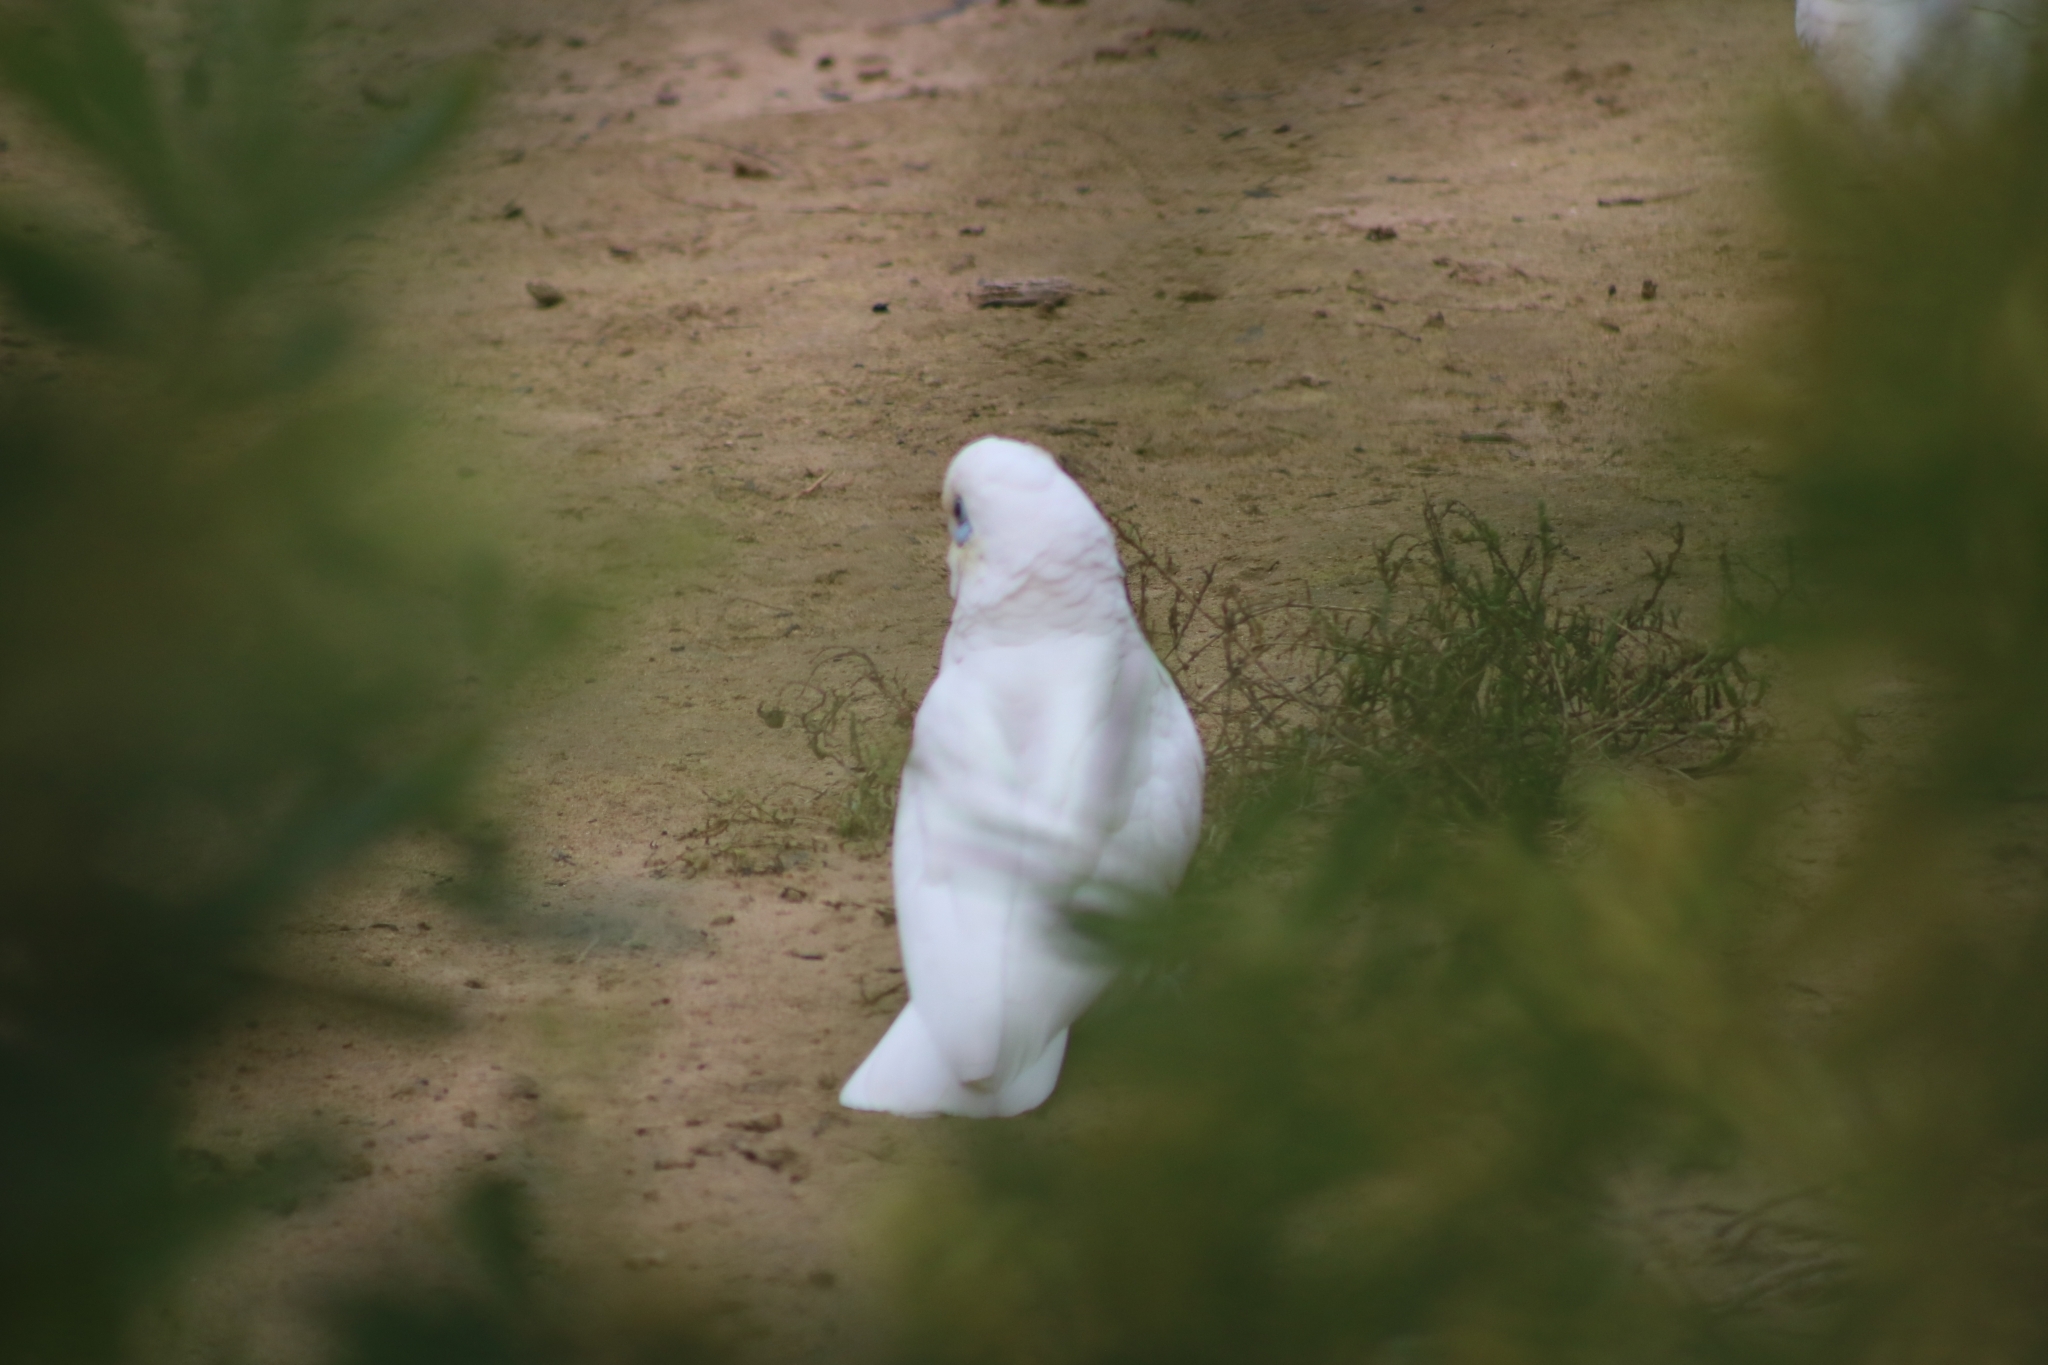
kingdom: Animalia
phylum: Chordata
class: Aves
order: Psittaciformes
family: Psittacidae
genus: Cacatua
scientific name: Cacatua sanguinea
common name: Little corella
